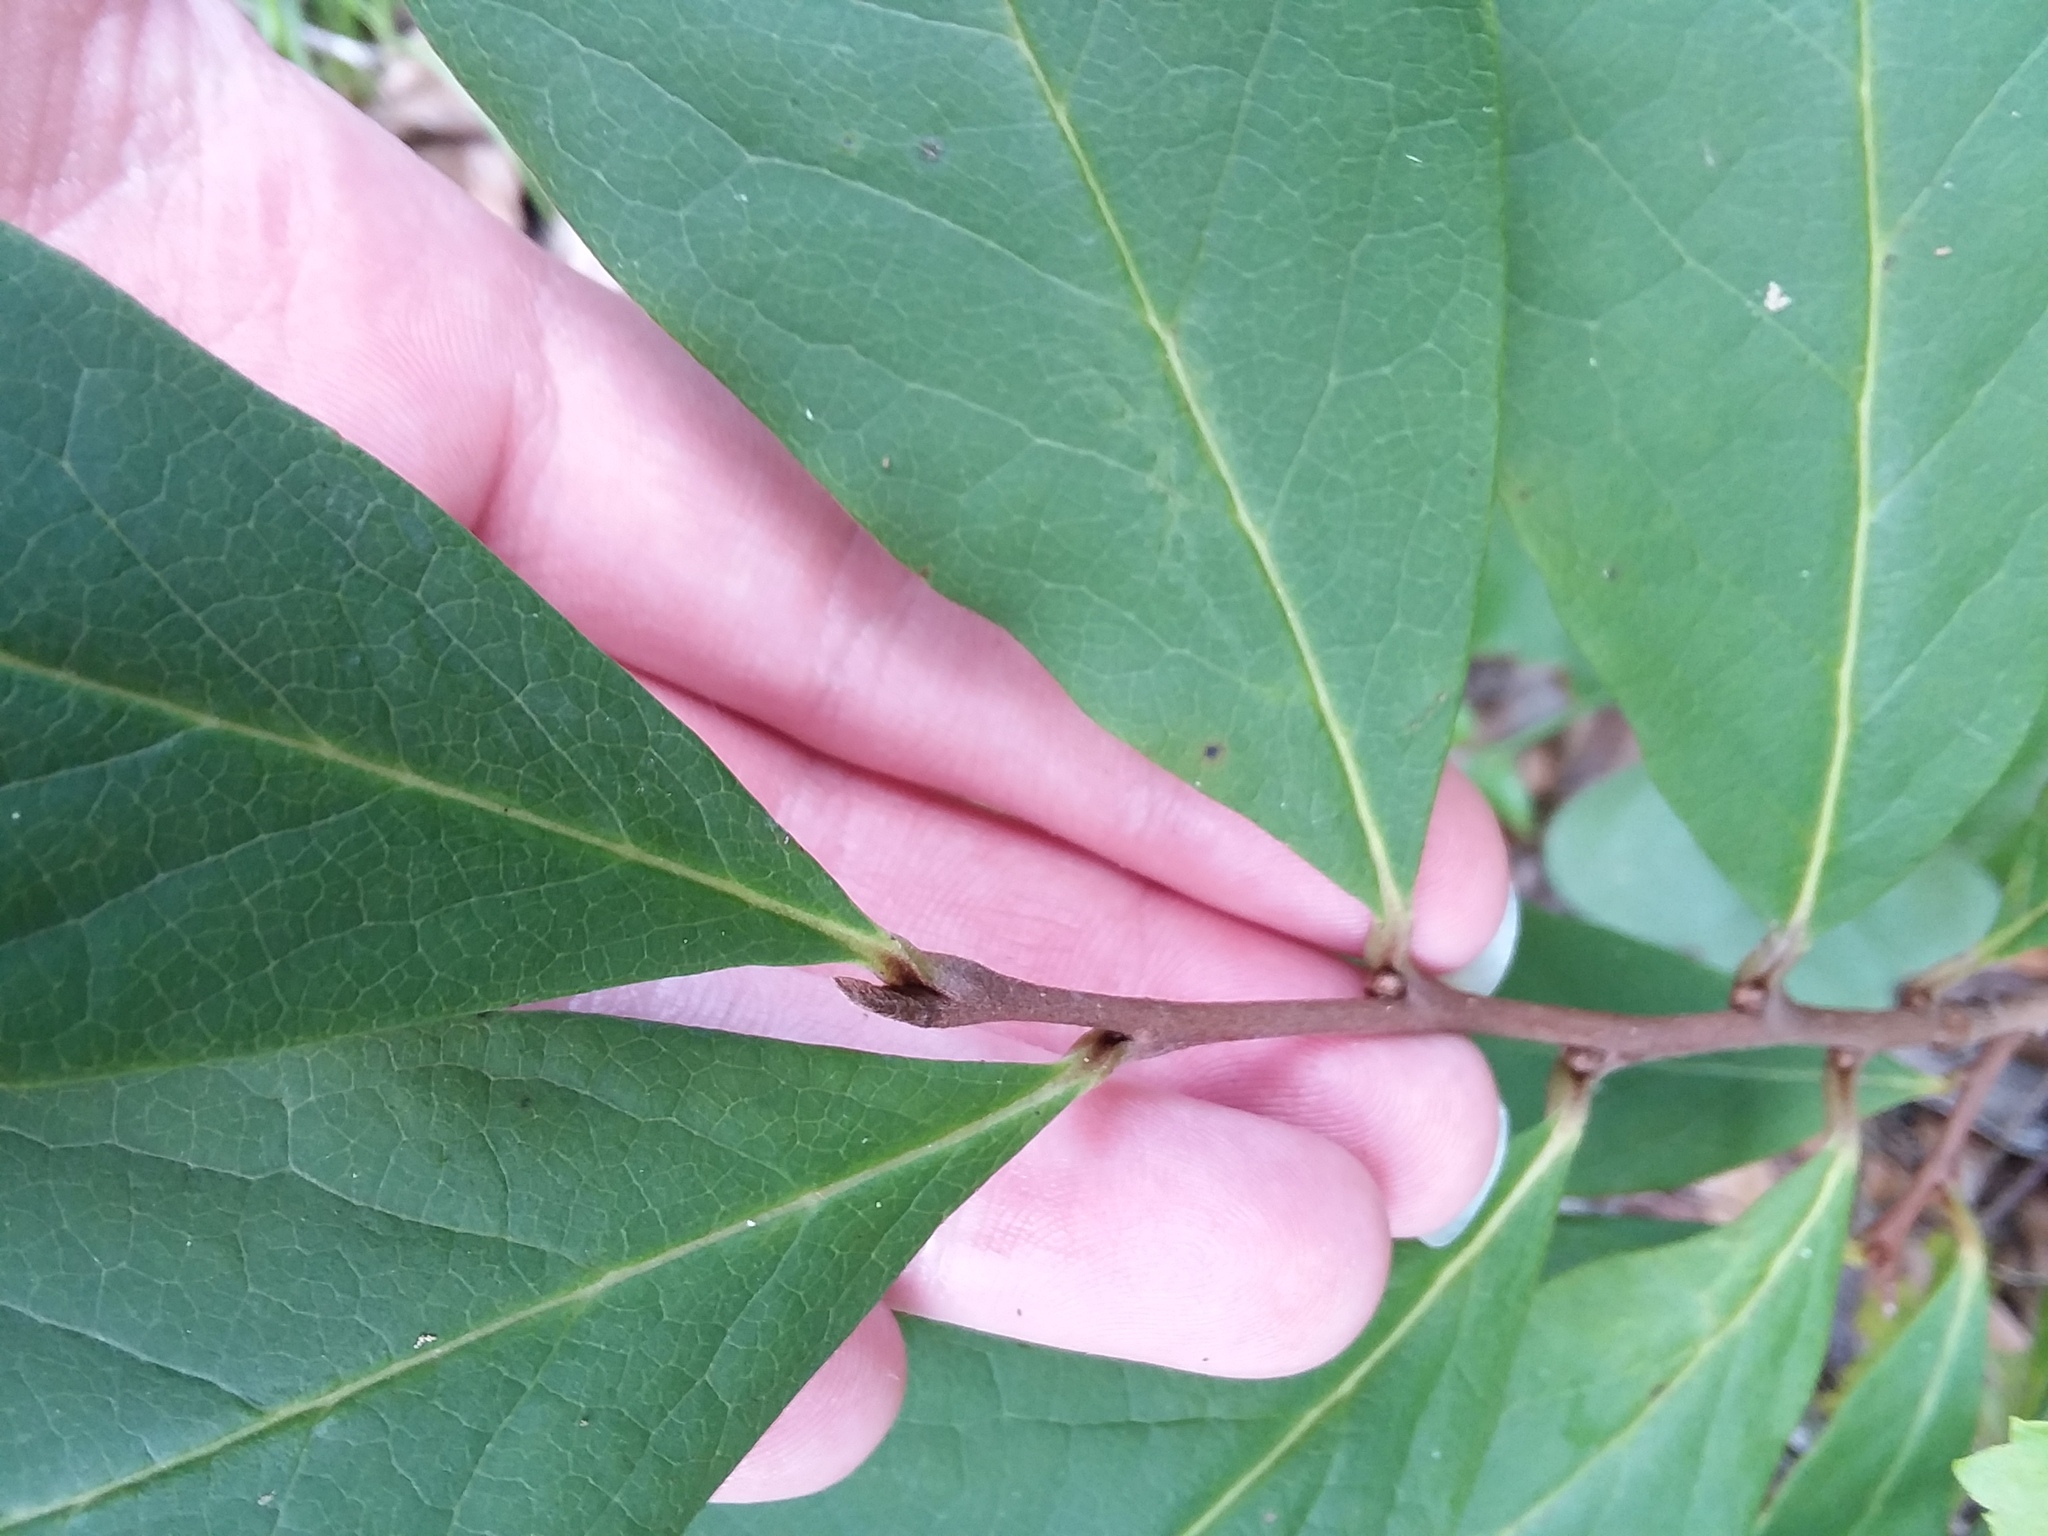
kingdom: Plantae
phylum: Tracheophyta
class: Magnoliopsida
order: Magnoliales
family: Annonaceae
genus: Asimina
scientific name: Asimina parviflora
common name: Dwarf pawpaw
